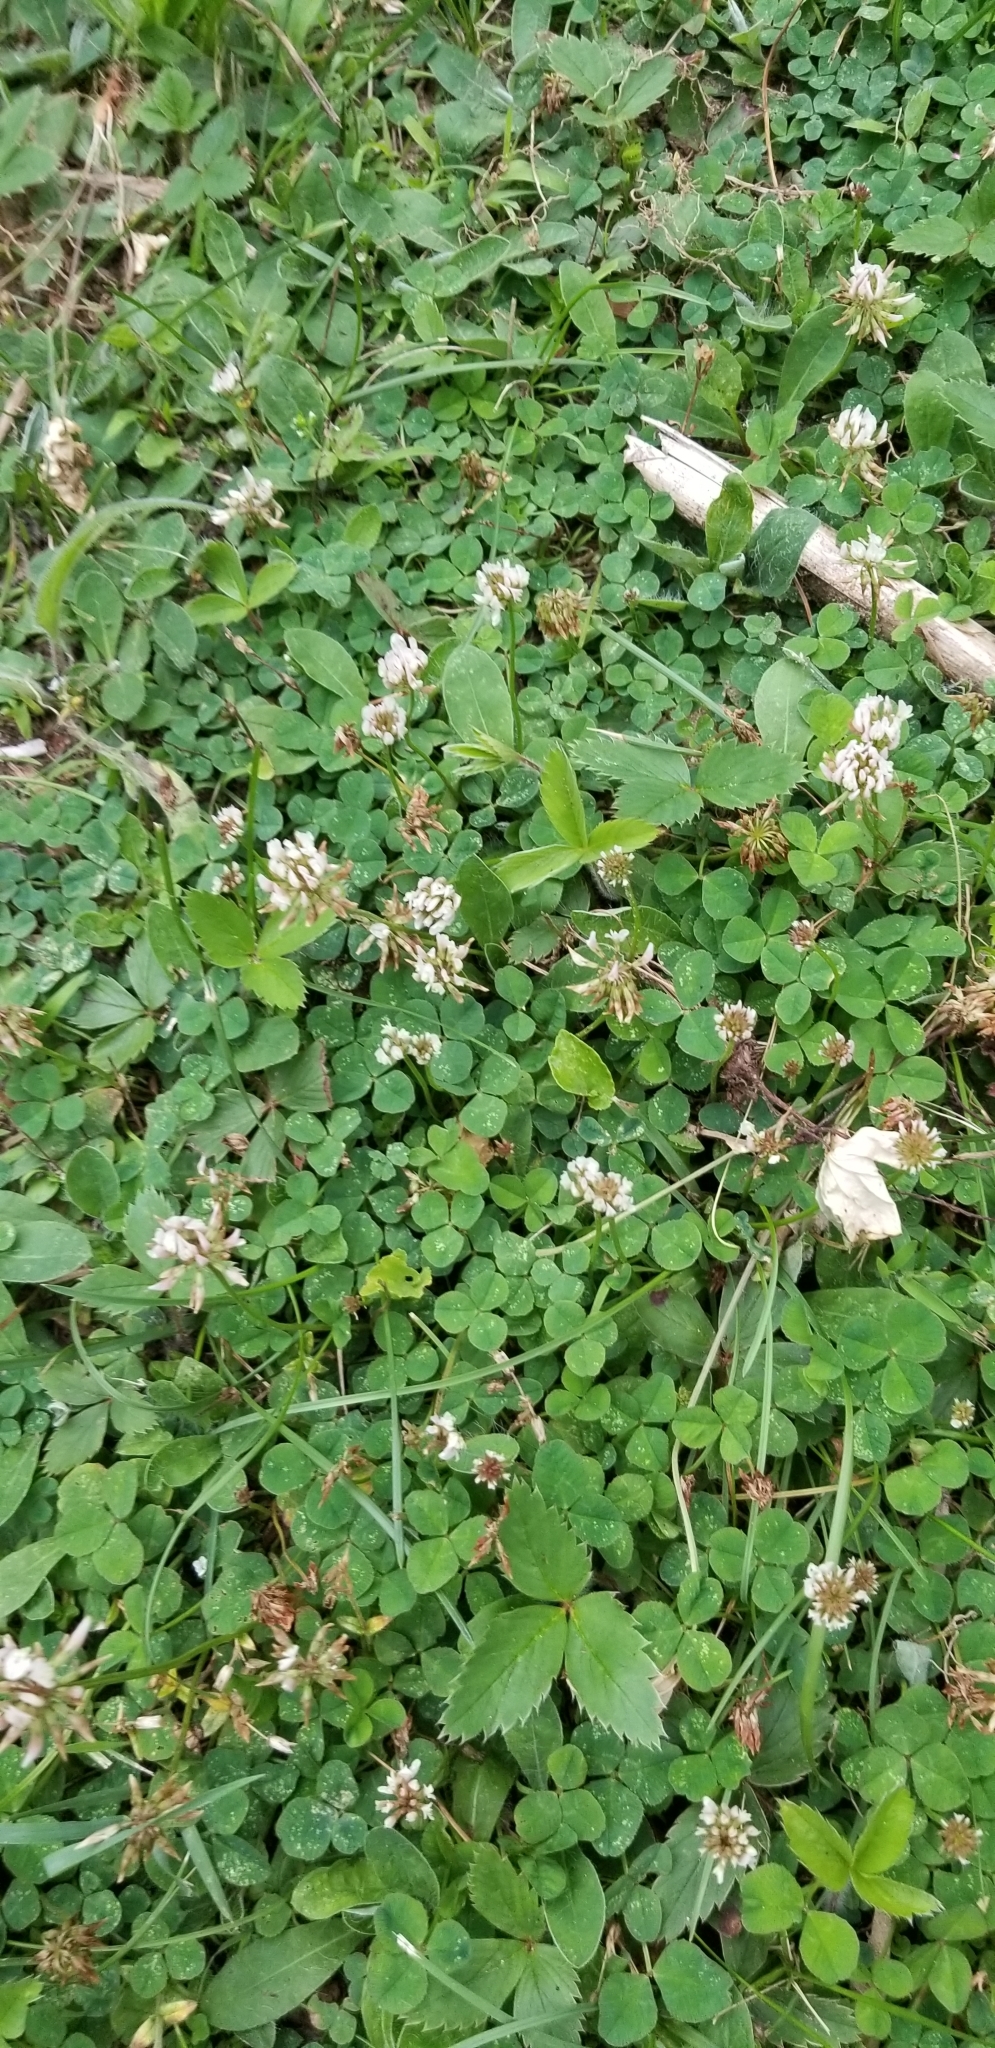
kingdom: Plantae
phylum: Tracheophyta
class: Magnoliopsida
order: Fabales
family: Fabaceae
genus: Trifolium
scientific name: Trifolium repens
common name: White clover
